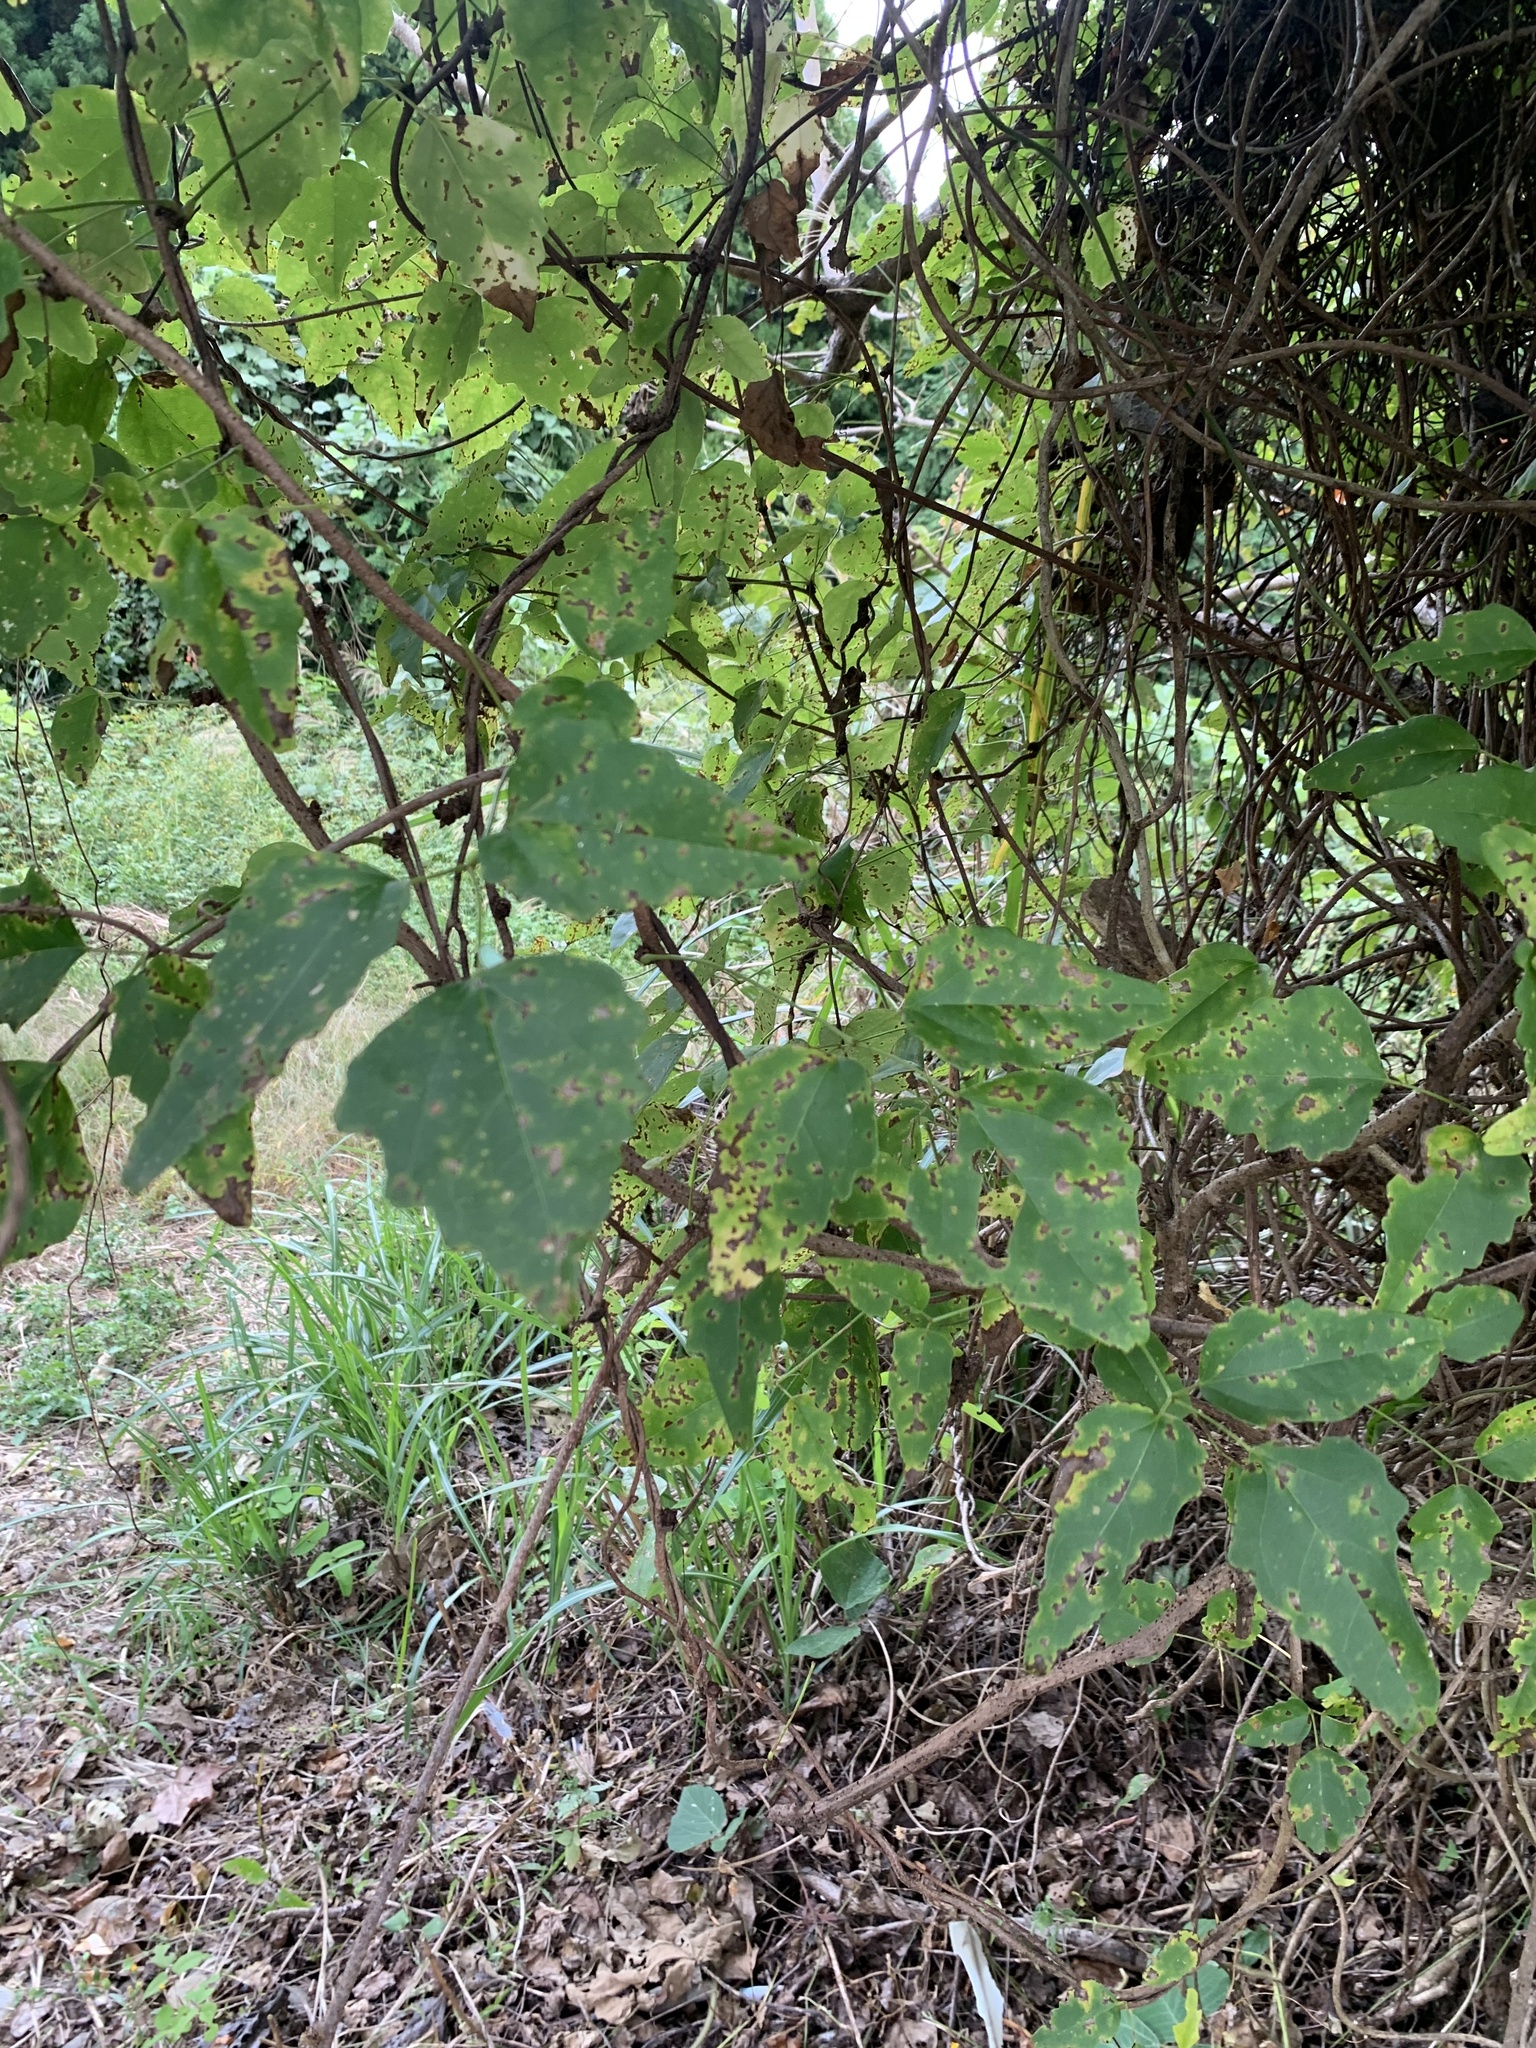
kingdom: Plantae
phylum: Tracheophyta
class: Magnoliopsida
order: Ranunculales
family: Lardizabalaceae
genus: Akebia
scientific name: Akebia trifoliata
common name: Chocolate-vine
